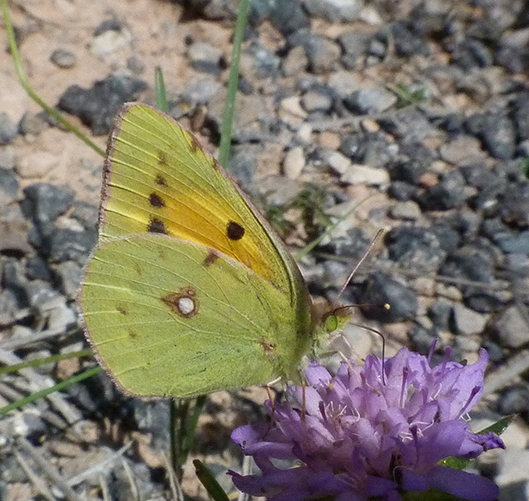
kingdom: Animalia
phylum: Arthropoda
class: Insecta
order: Lepidoptera
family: Pieridae
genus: Colias
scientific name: Colias croceus
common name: Clouded yellow
